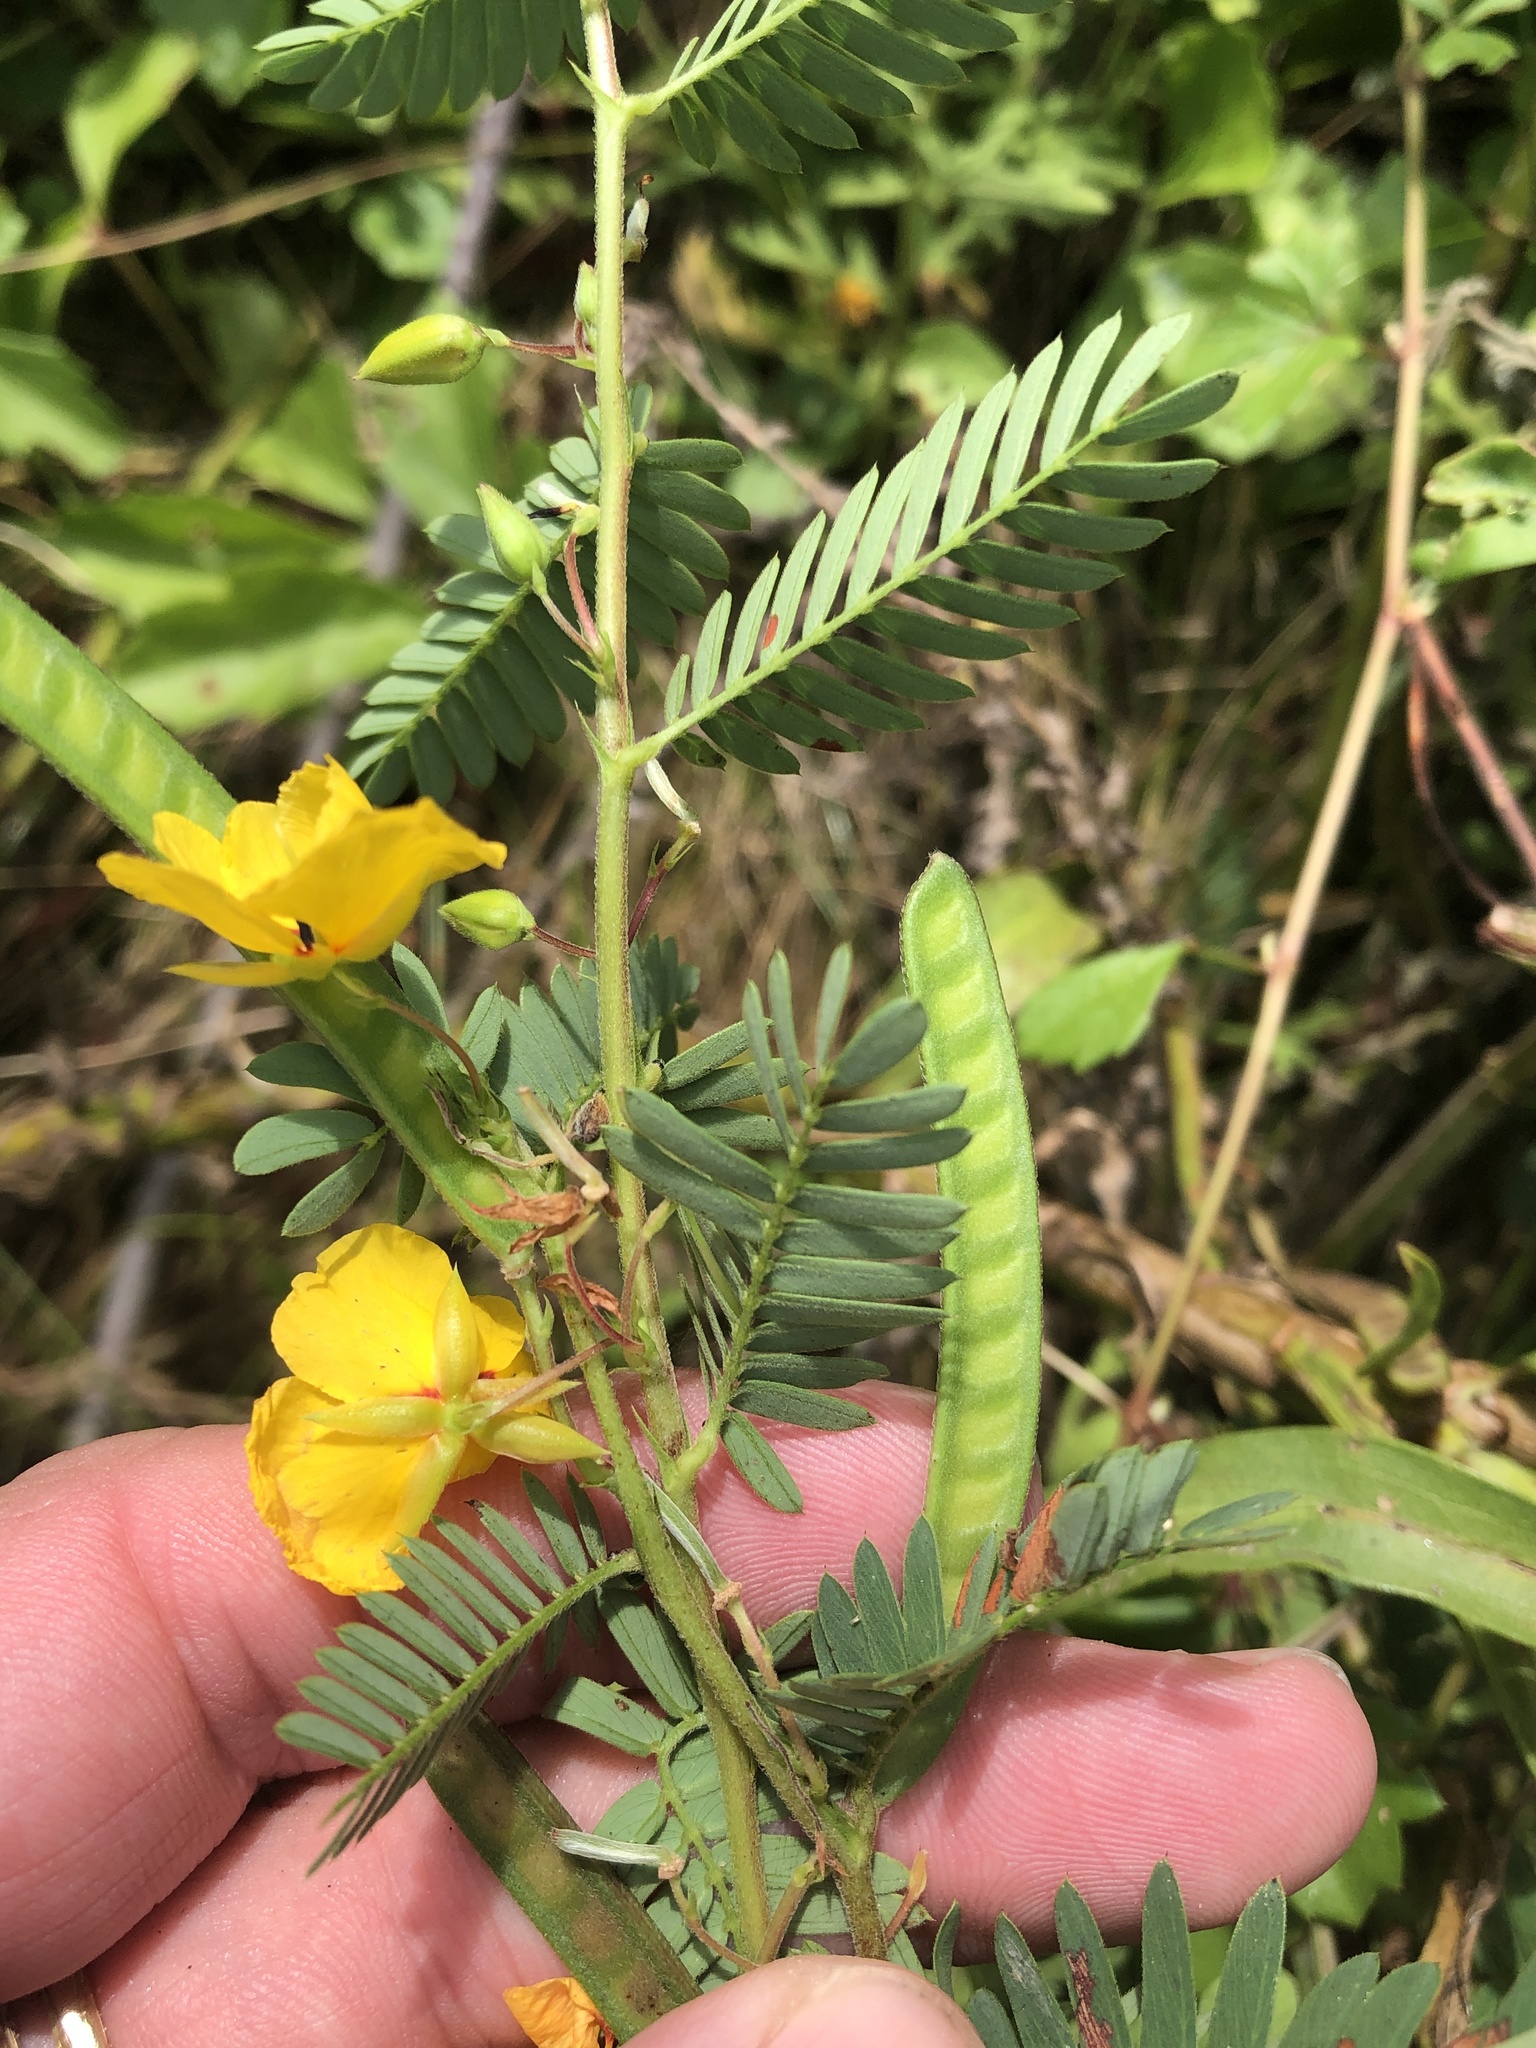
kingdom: Plantae
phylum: Tracheophyta
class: Magnoliopsida
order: Fabales
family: Fabaceae
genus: Chamaecrista
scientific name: Chamaecrista fasciculata
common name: Golden cassia
